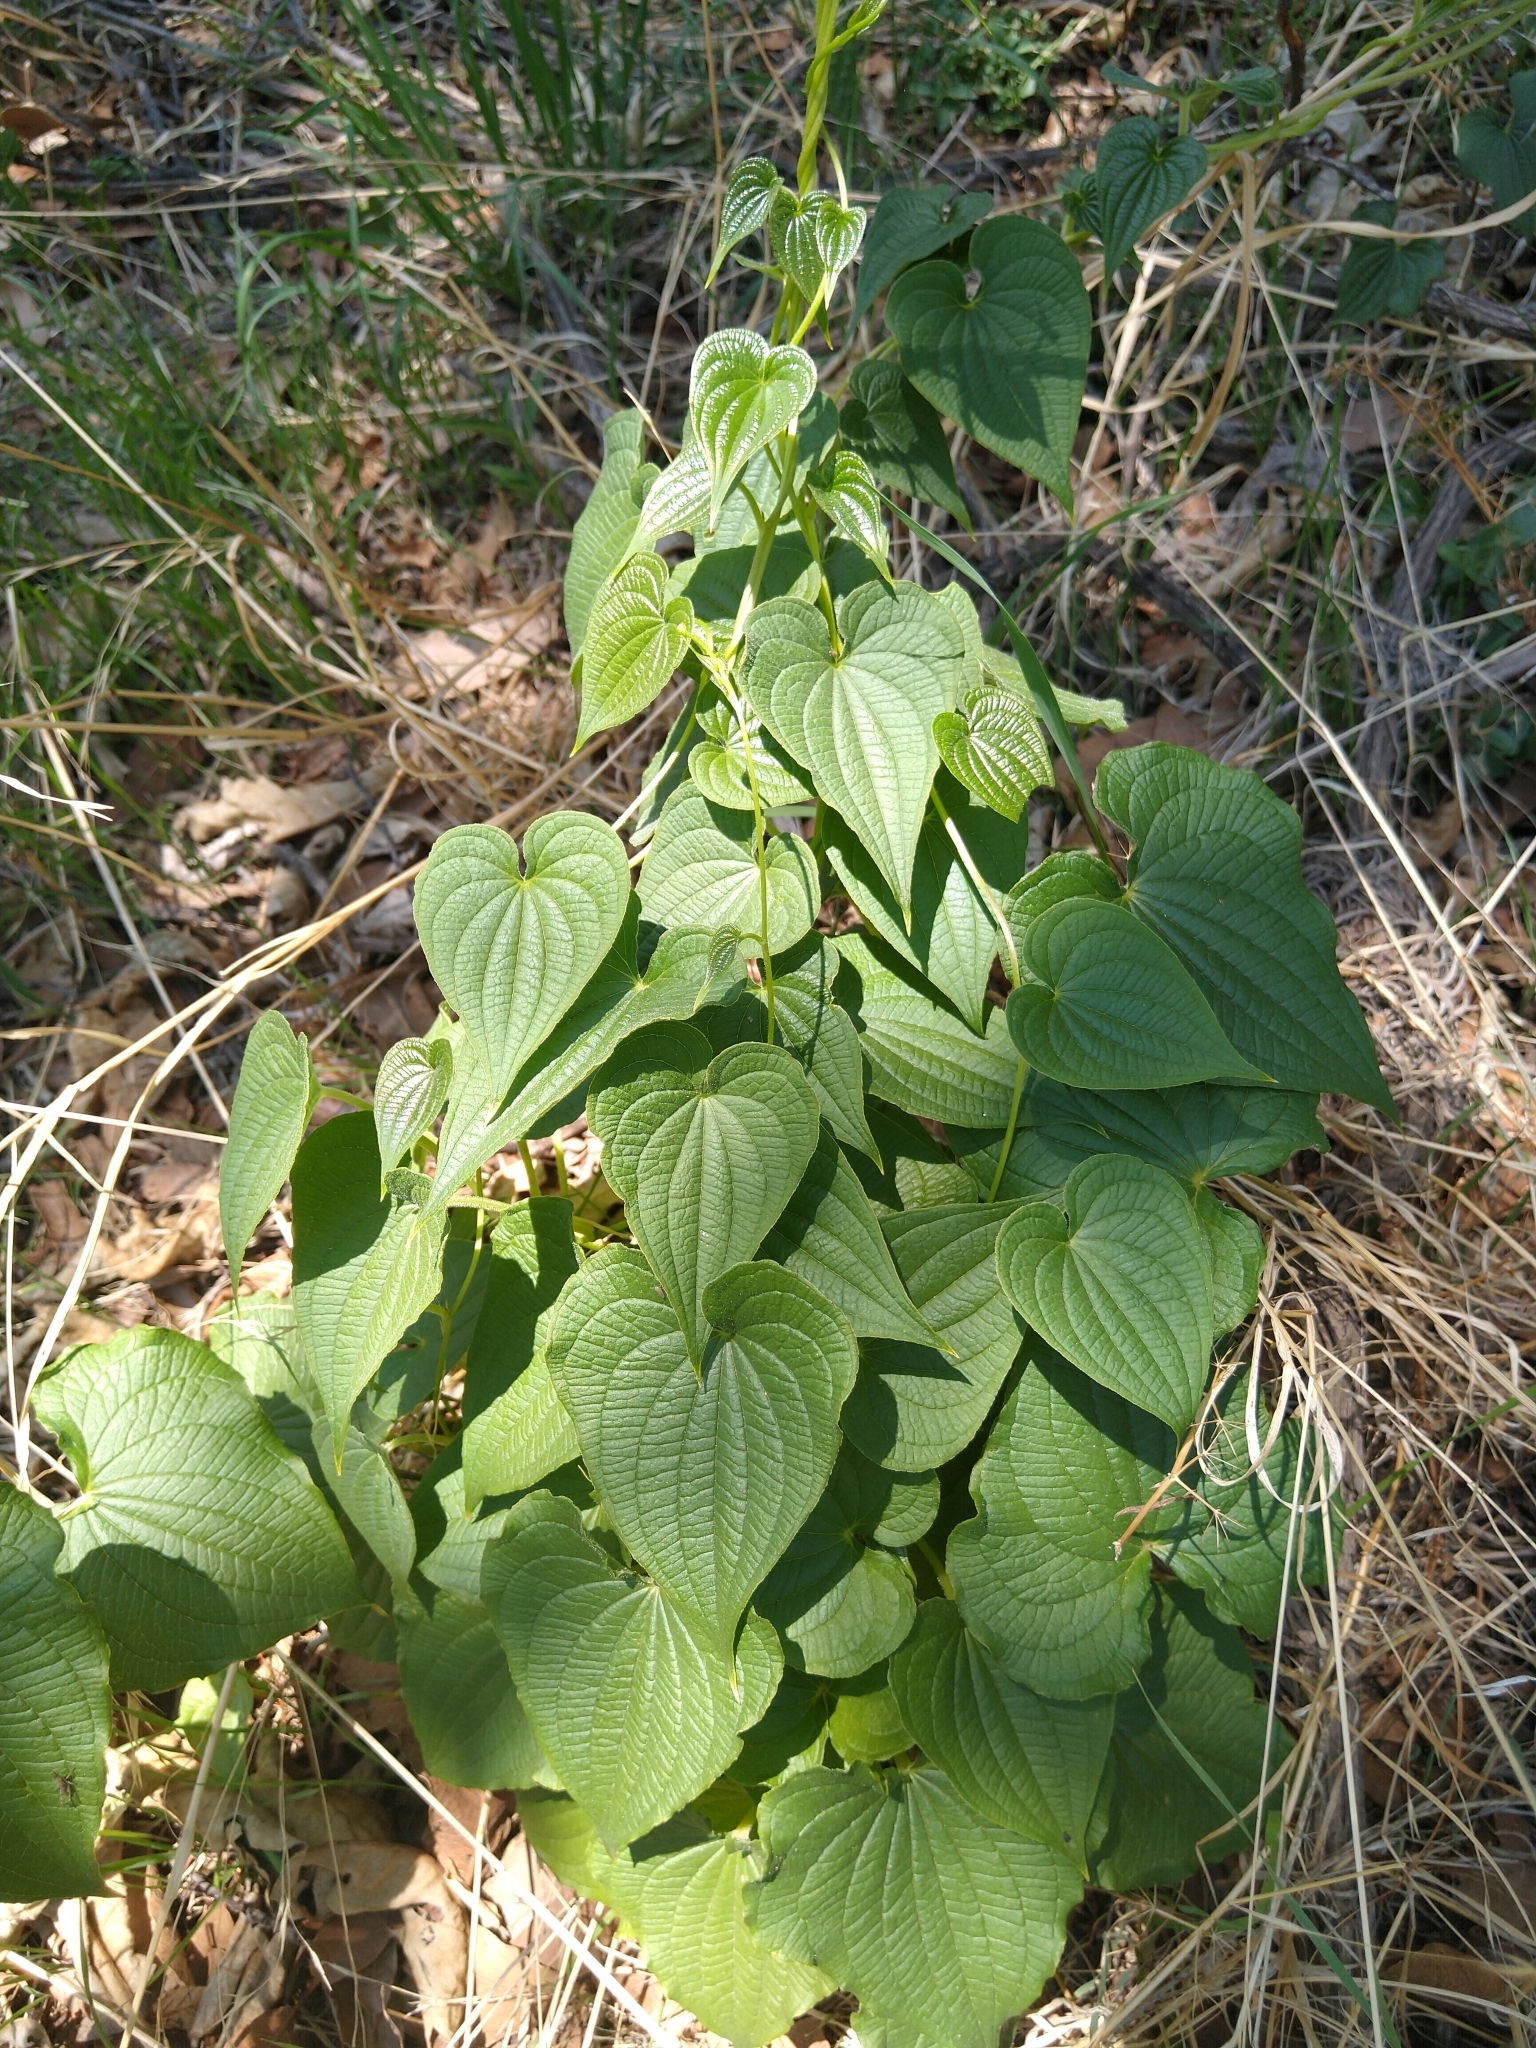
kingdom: Plantae
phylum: Tracheophyta
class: Liliopsida
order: Dioscoreales
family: Dioscoreaceae
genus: Dioscorea
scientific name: Dioscorea galeottiana
